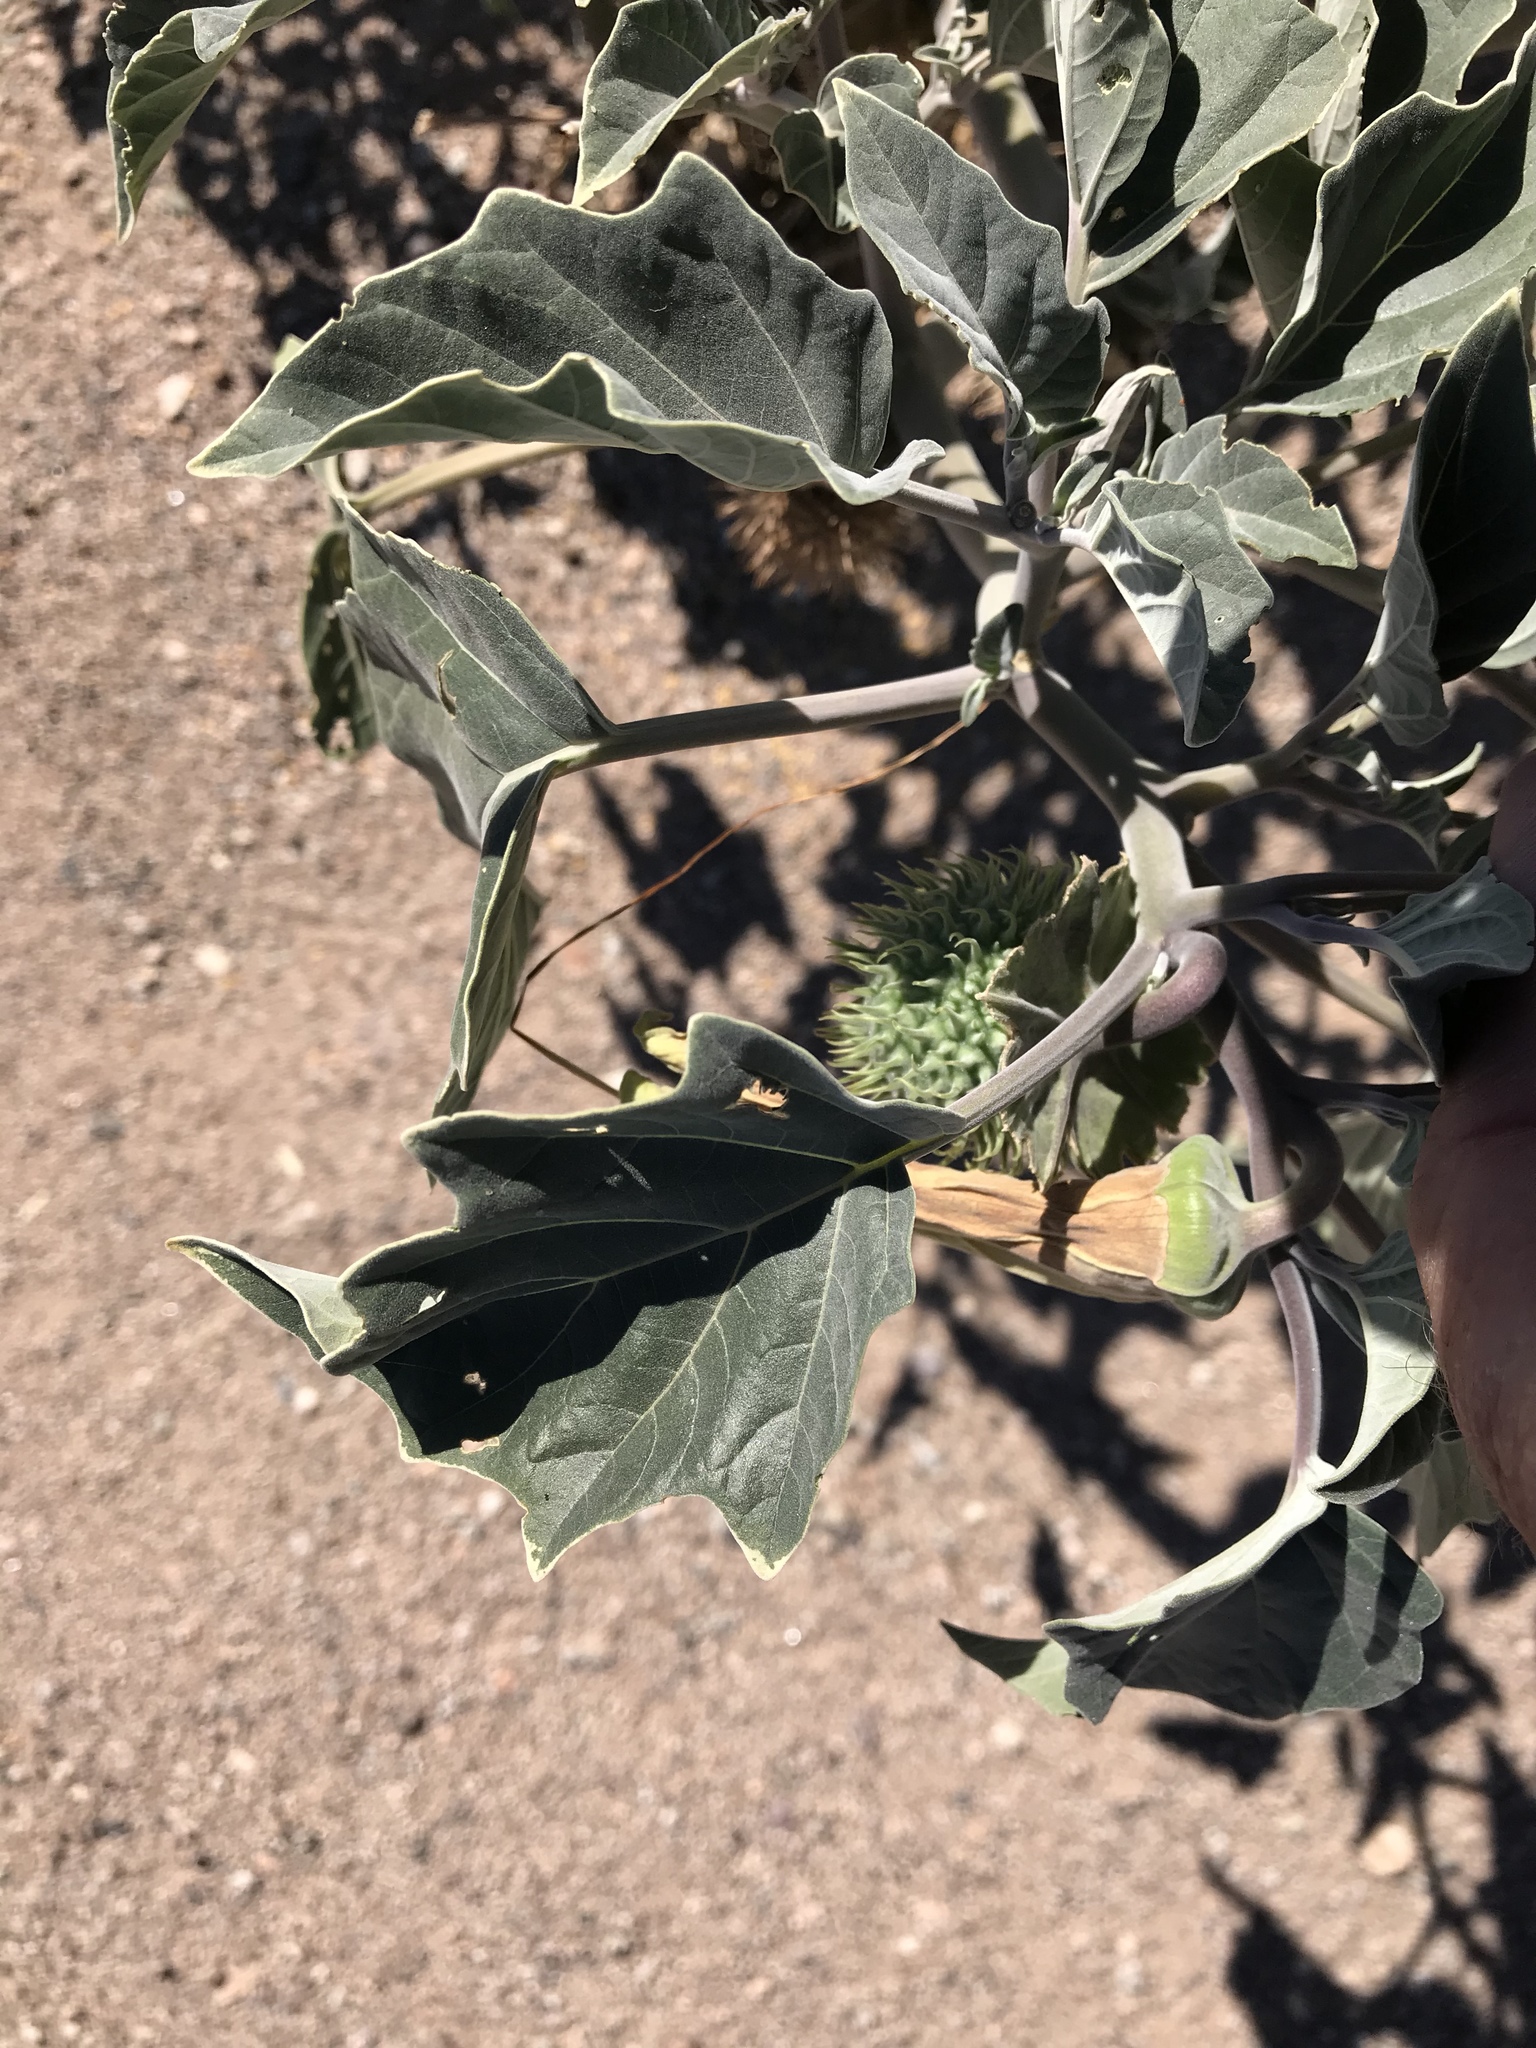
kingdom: Plantae
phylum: Tracheophyta
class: Magnoliopsida
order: Solanales
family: Solanaceae
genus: Datura
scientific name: Datura wrightii
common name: Sacred thorn-apple
